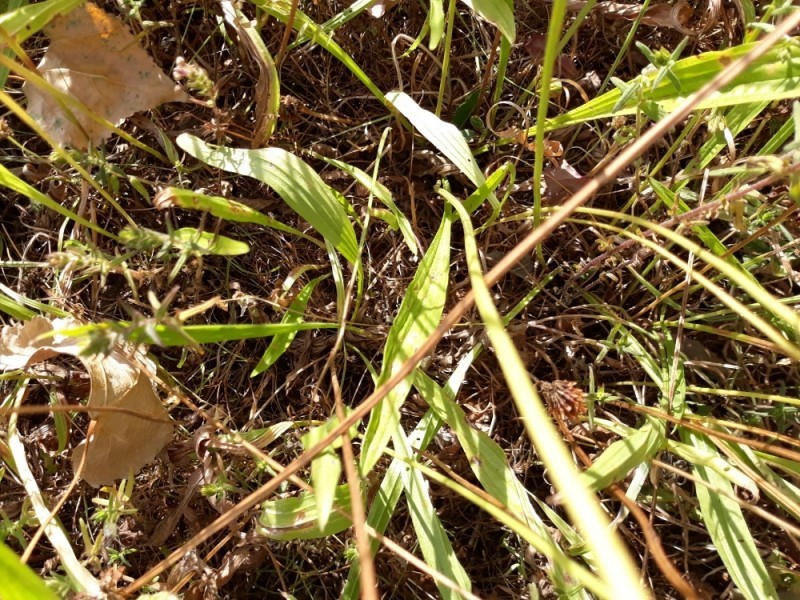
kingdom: Plantae
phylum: Tracheophyta
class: Magnoliopsida
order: Lamiales
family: Plantaginaceae
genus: Plantago
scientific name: Plantago lanceolata
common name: Ribwort plantain
